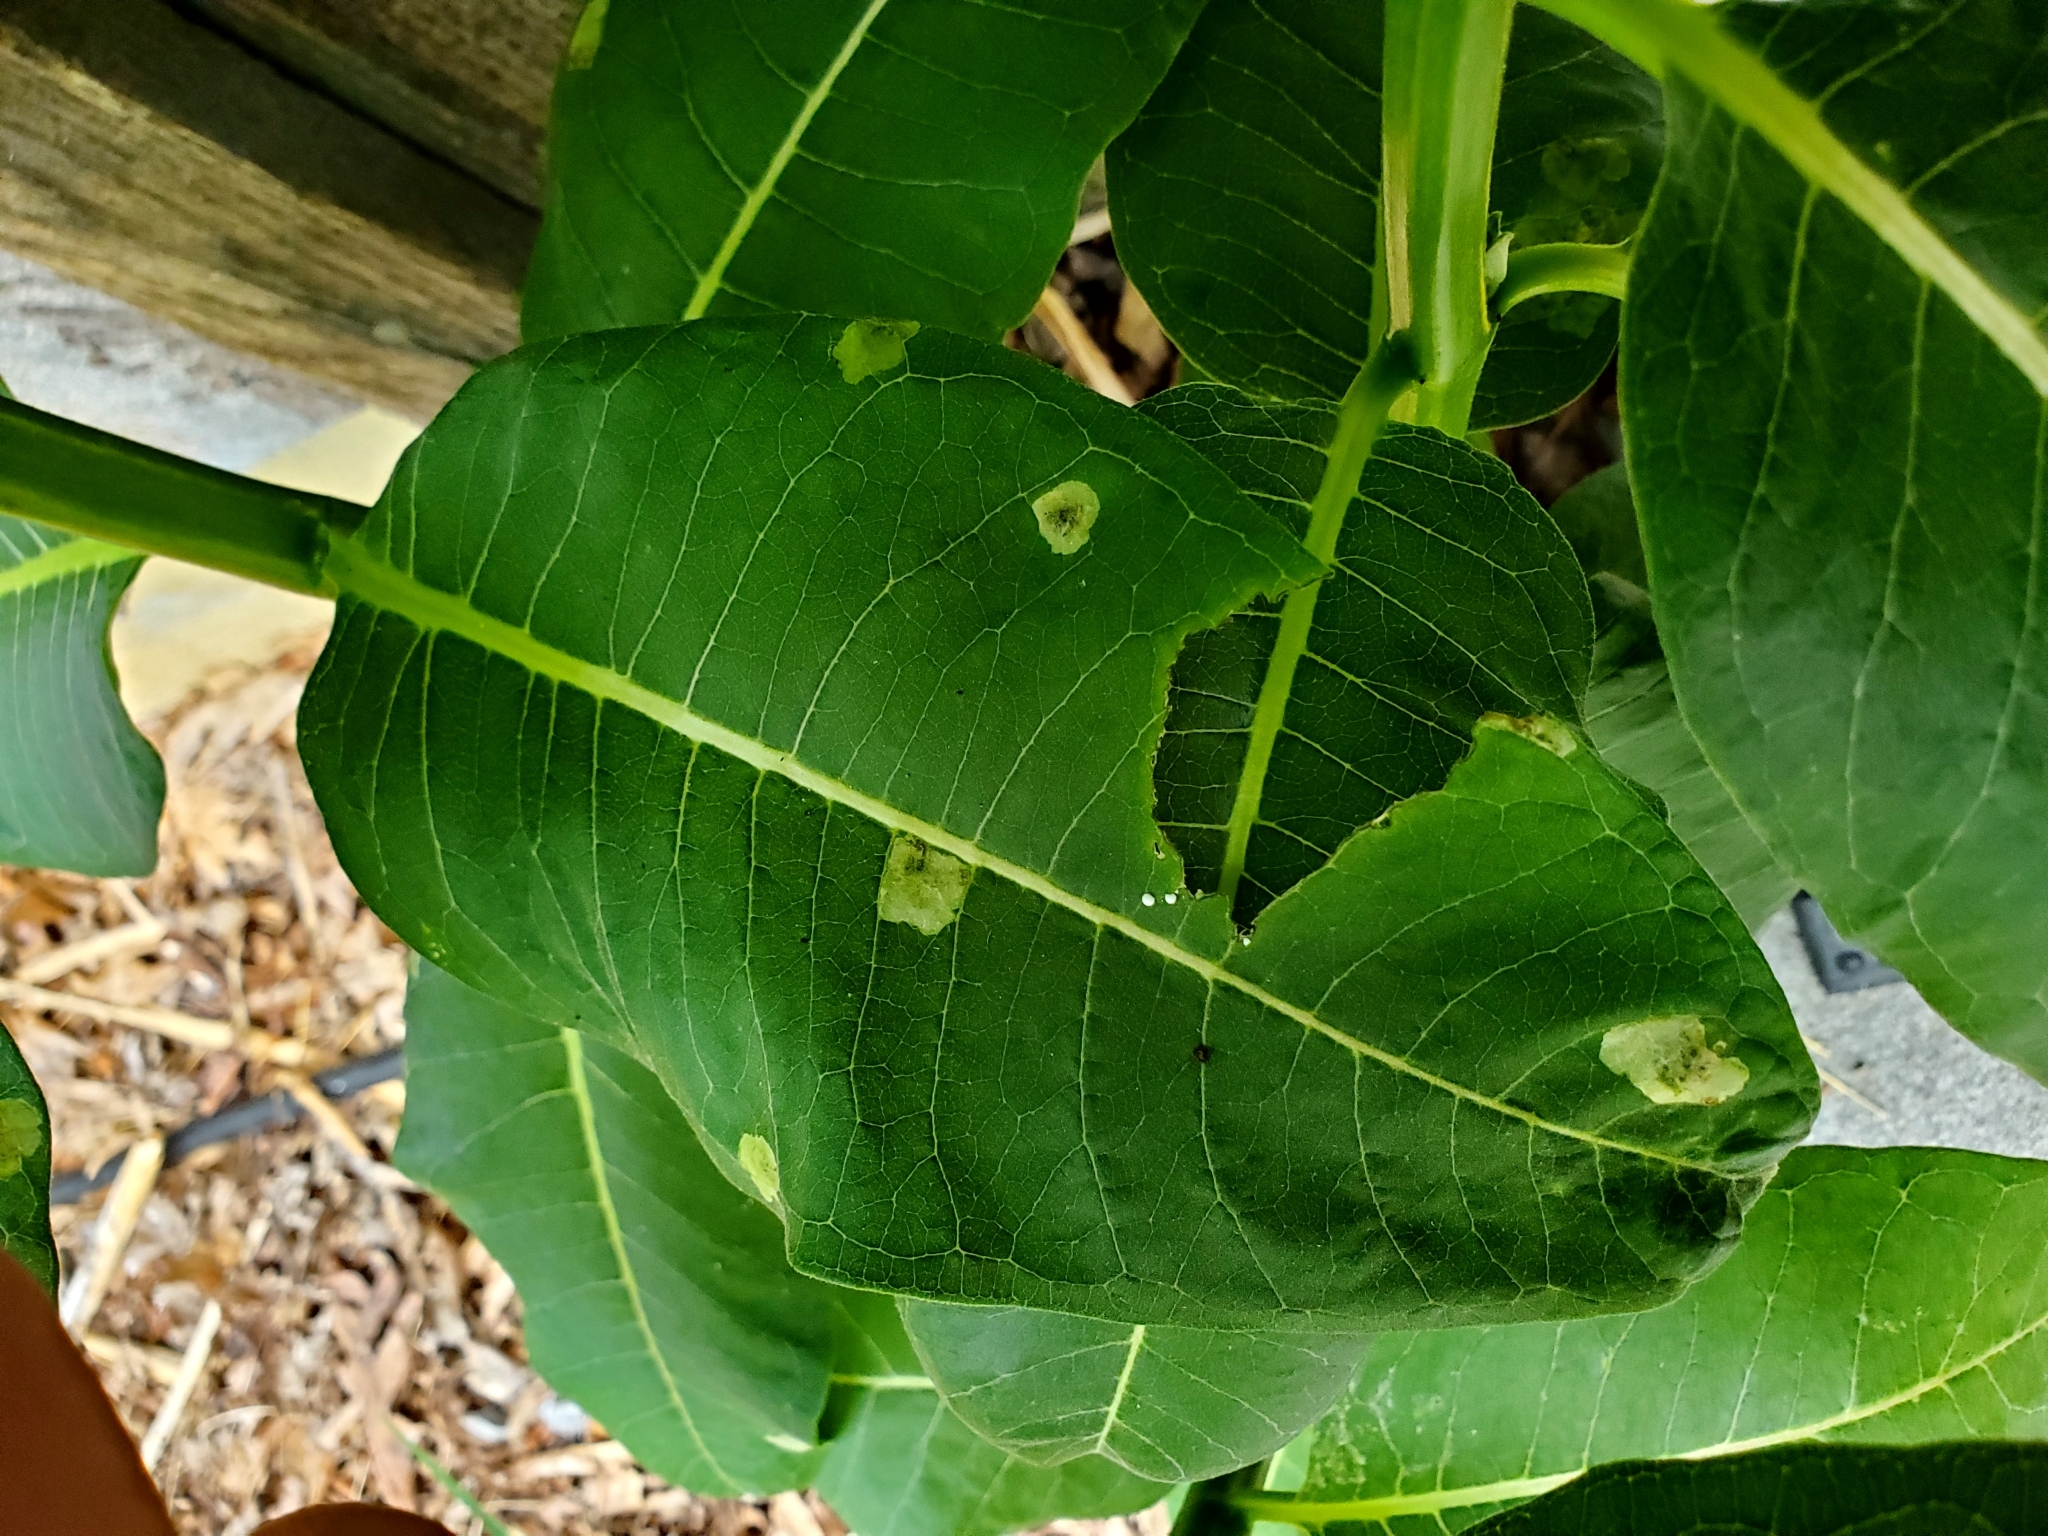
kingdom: Animalia
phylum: Arthropoda
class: Insecta
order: Diptera
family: Agromyzidae
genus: Liriomyza
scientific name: Liriomyza asclepiadis
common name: Milkweed leaf-miner fly
